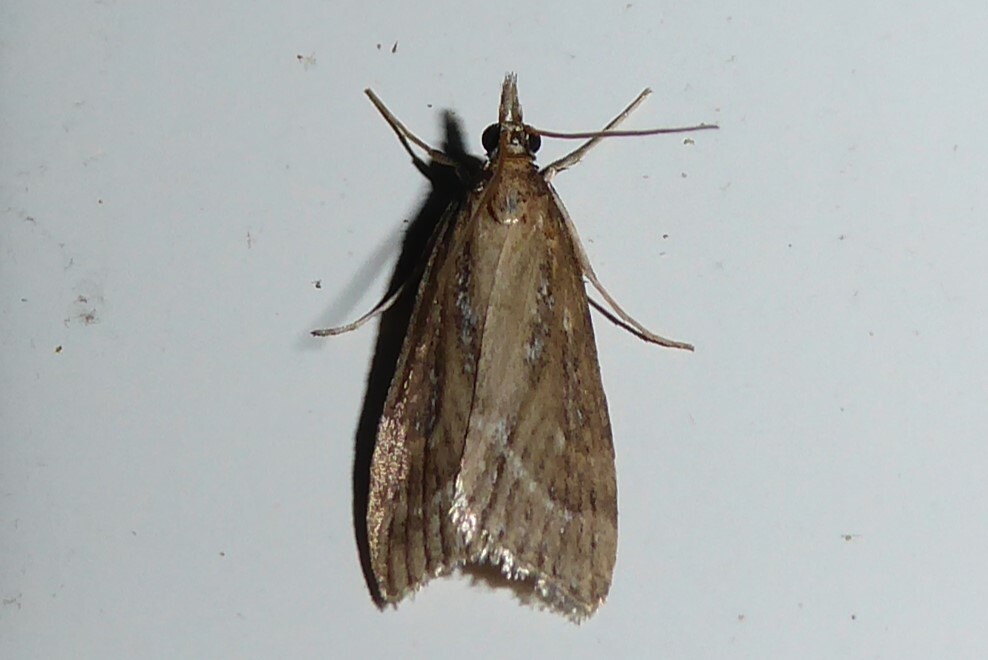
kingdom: Animalia
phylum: Arthropoda
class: Insecta
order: Lepidoptera
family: Crambidae
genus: Eudonia
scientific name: Eudonia octophora
